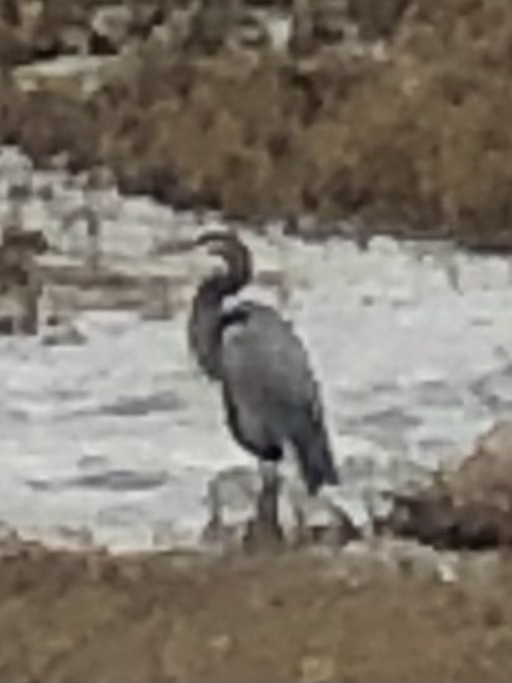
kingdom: Animalia
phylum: Chordata
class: Aves
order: Pelecaniformes
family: Ardeidae
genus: Ardea
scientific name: Ardea herodias
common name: Great blue heron
